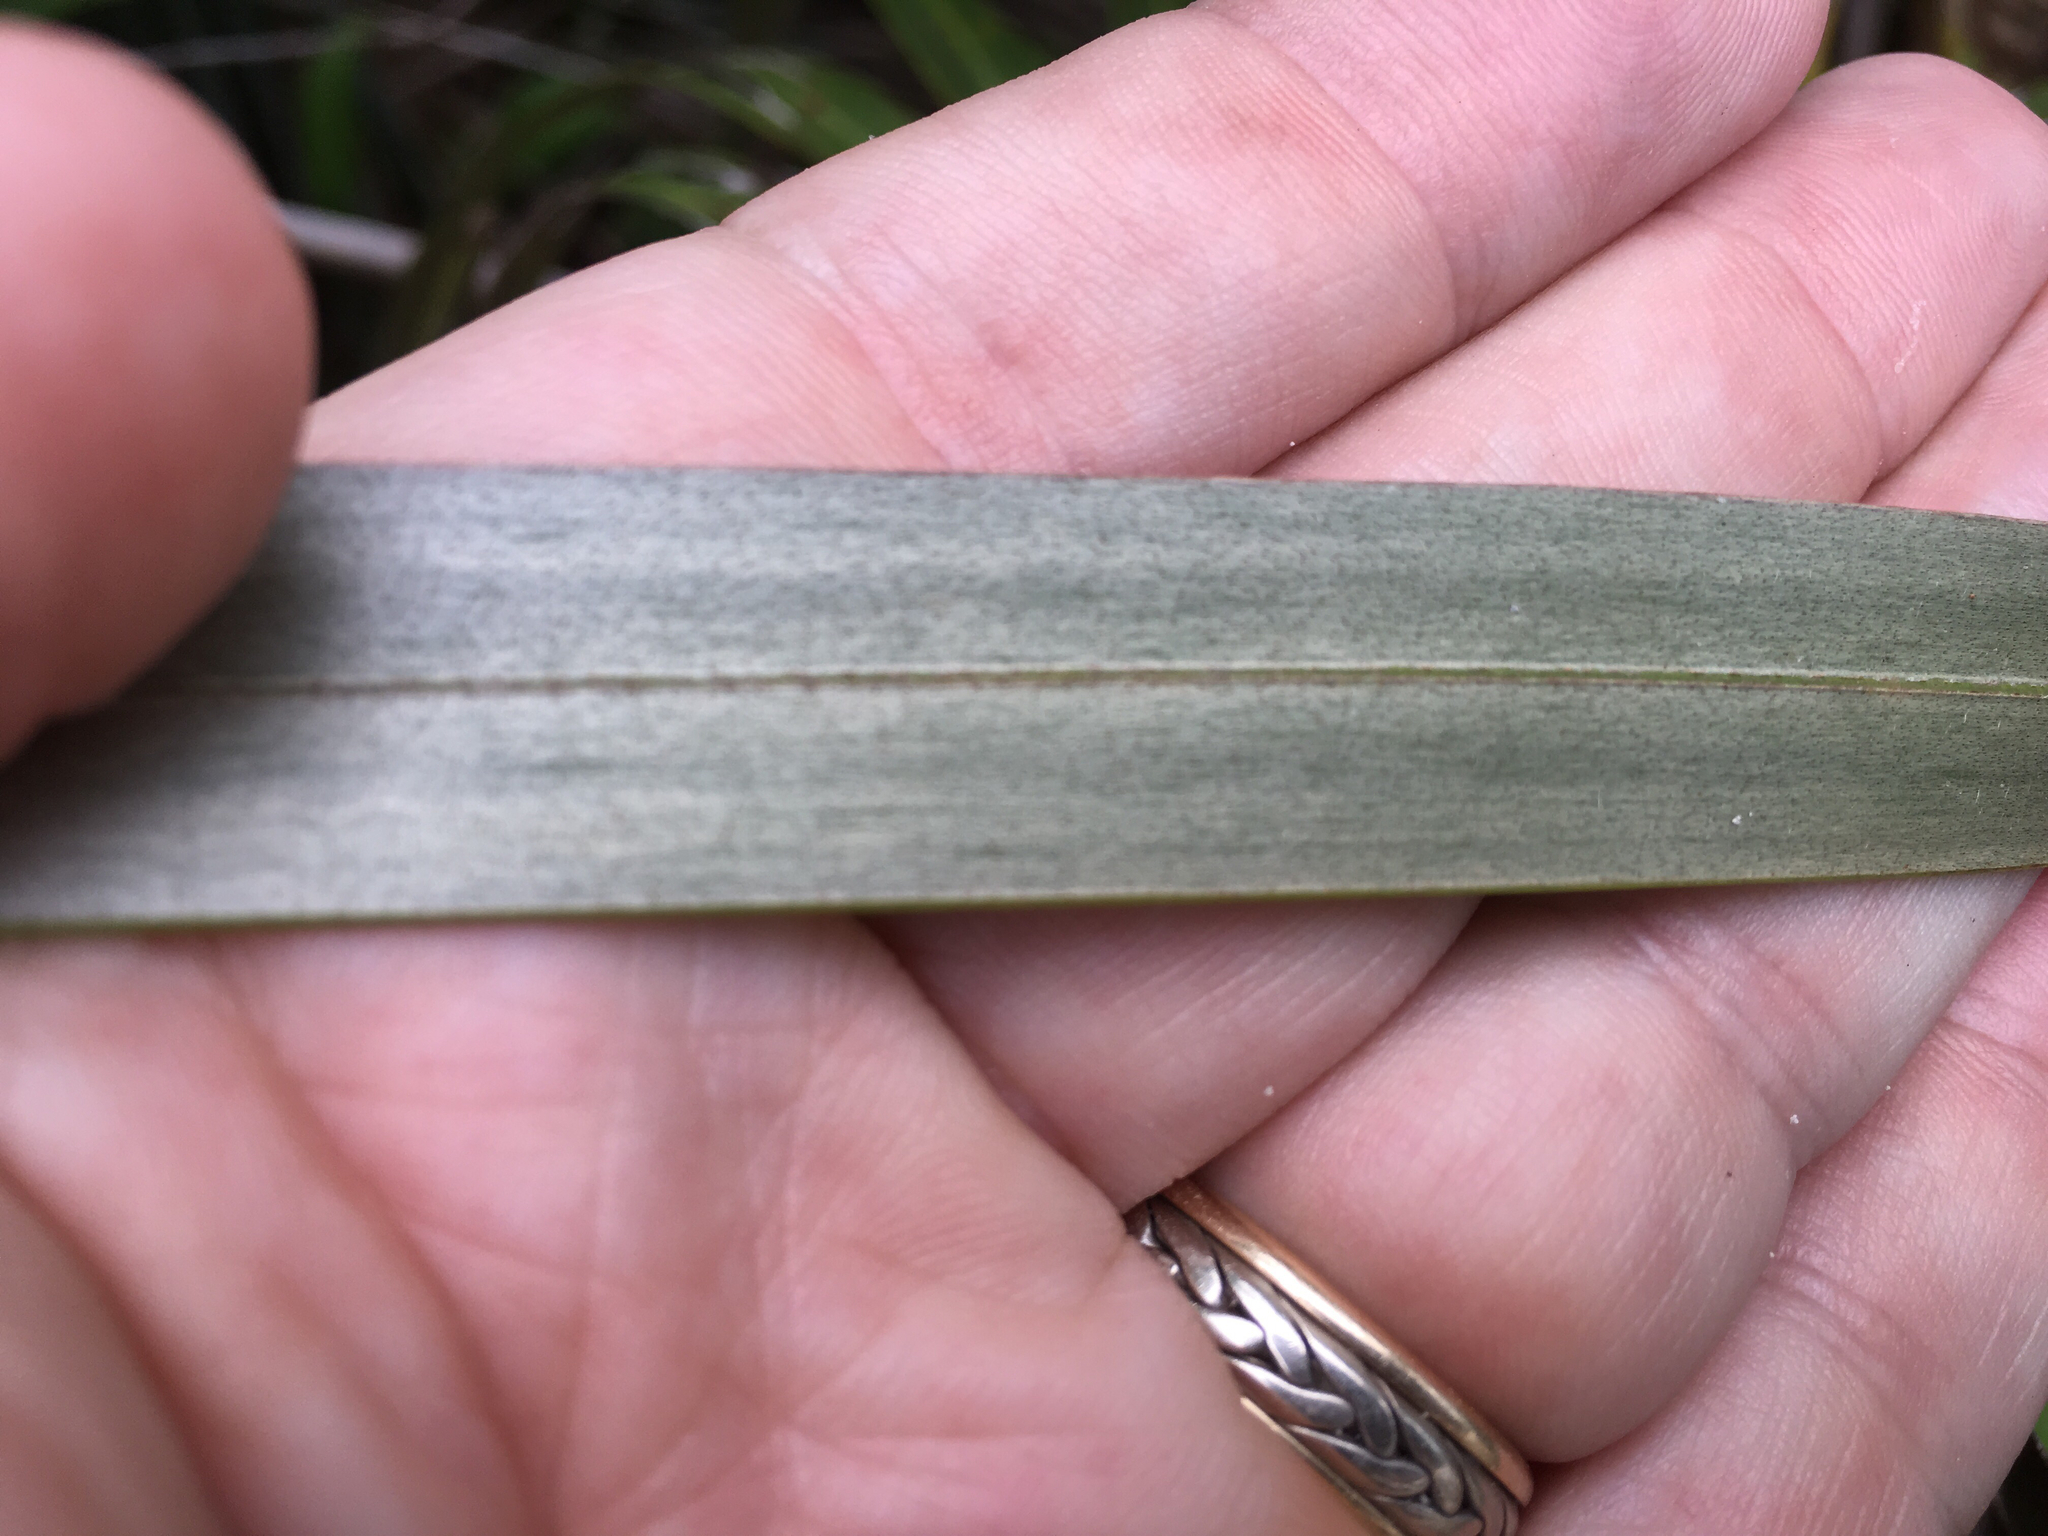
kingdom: Plantae
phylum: Tracheophyta
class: Liliopsida
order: Arecales
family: Arecaceae
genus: Coccothrinax
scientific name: Coccothrinax argentata
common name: Florida silver palm
